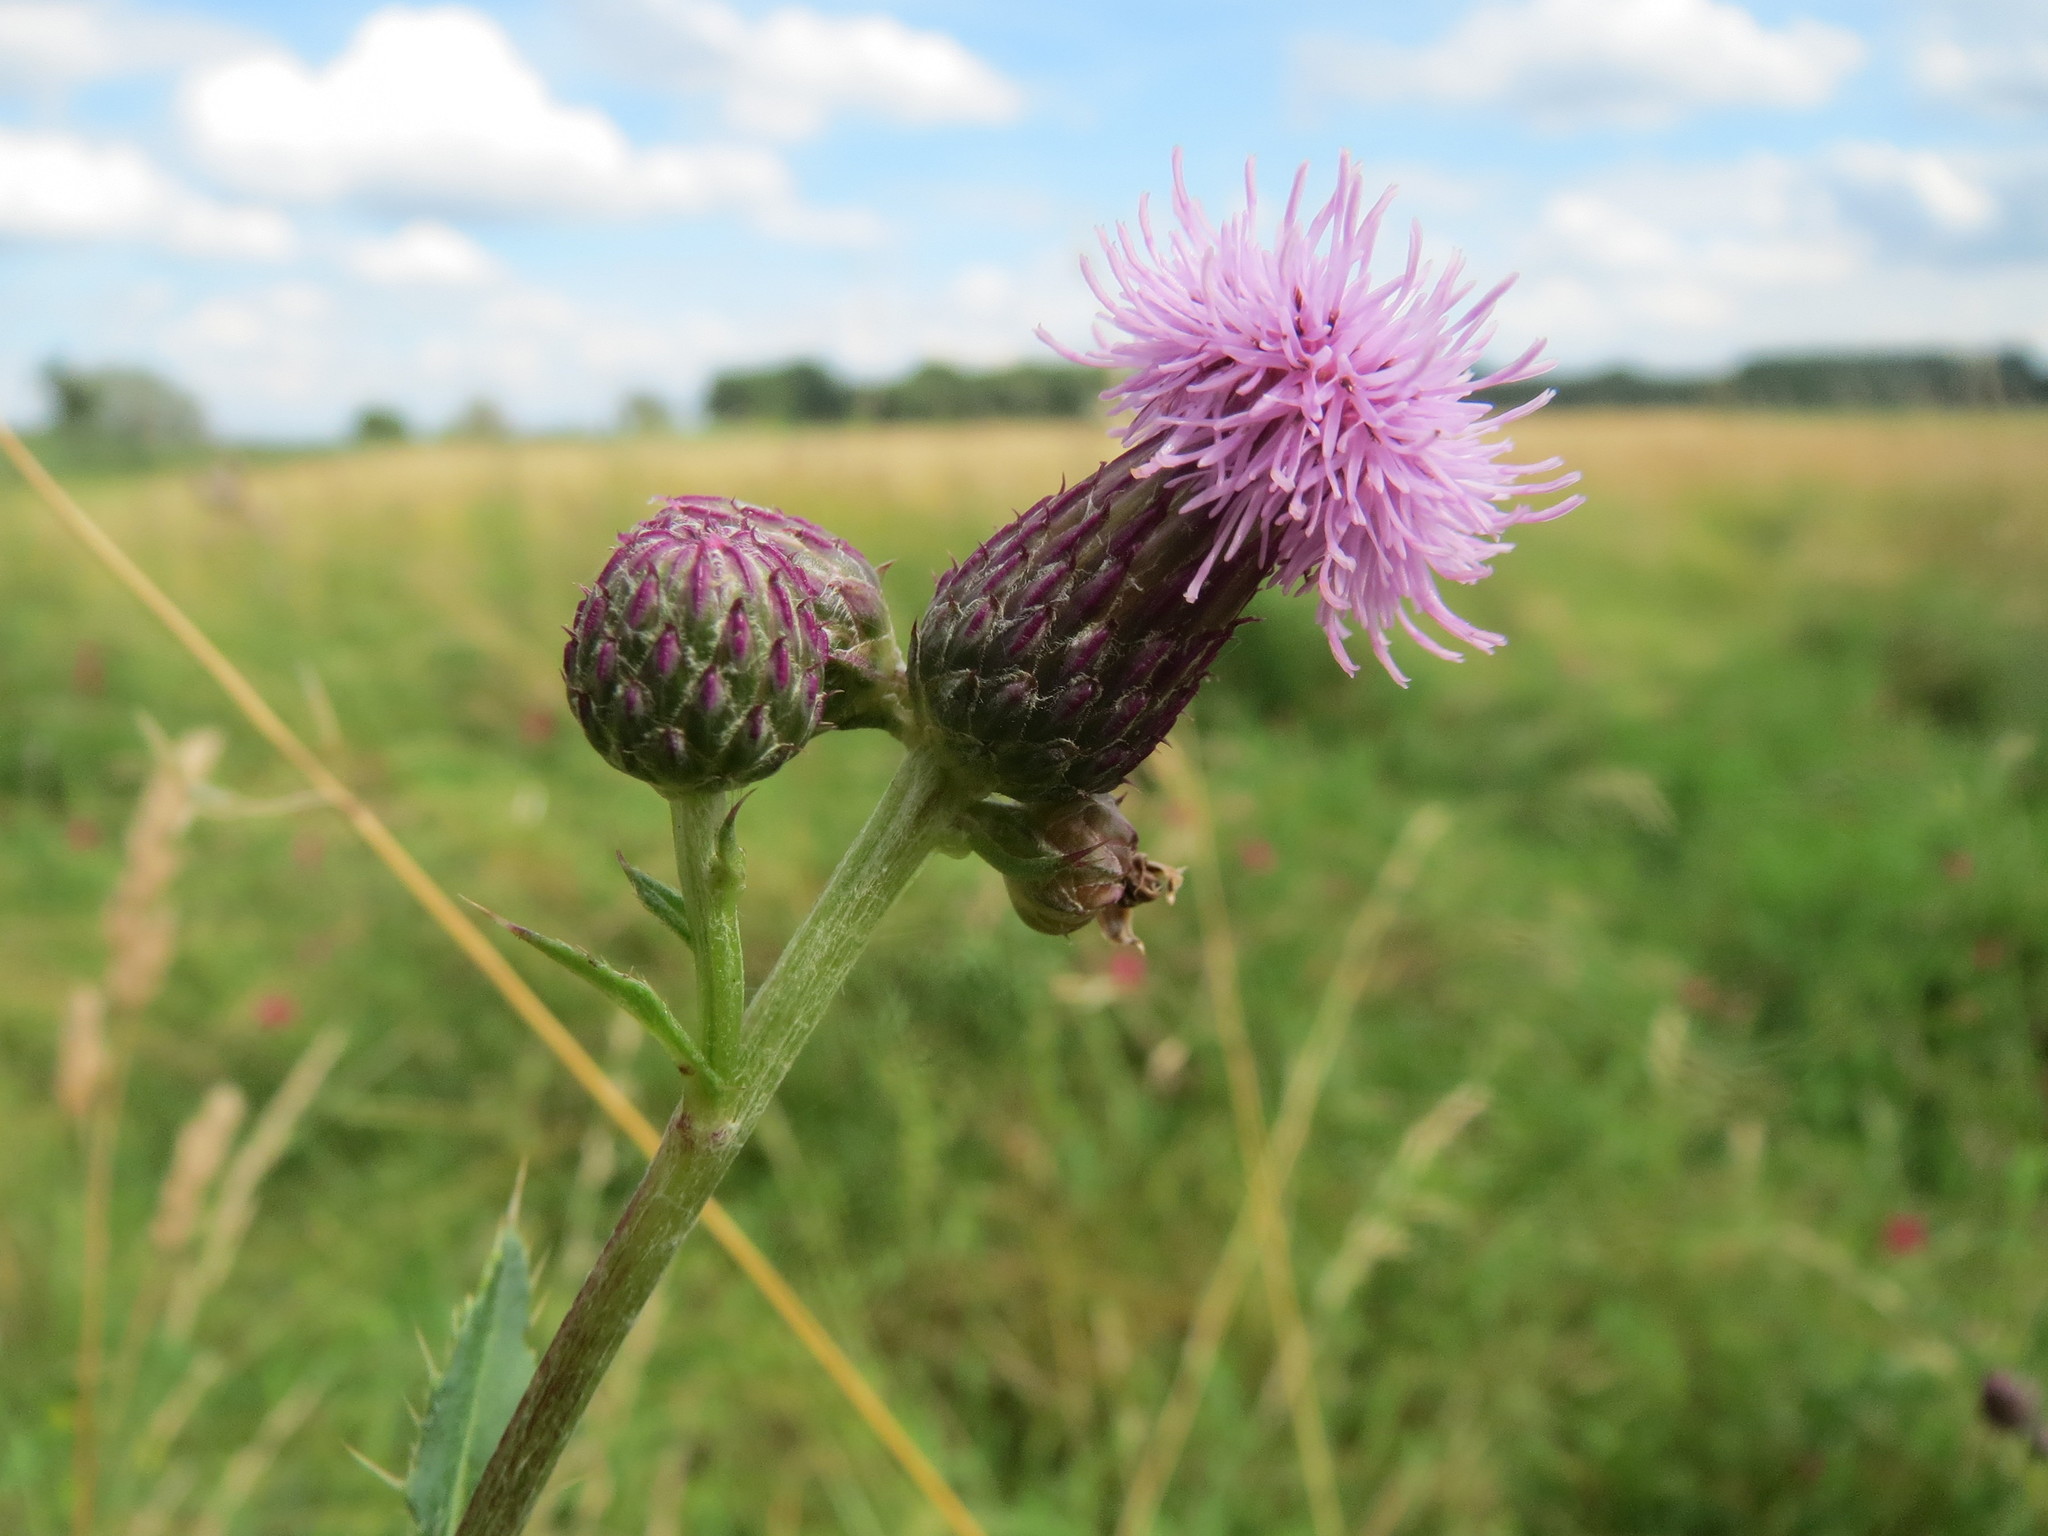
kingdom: Plantae
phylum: Tracheophyta
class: Magnoliopsida
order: Asterales
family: Asteraceae
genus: Cirsium
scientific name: Cirsium arvense
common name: Creeping thistle
